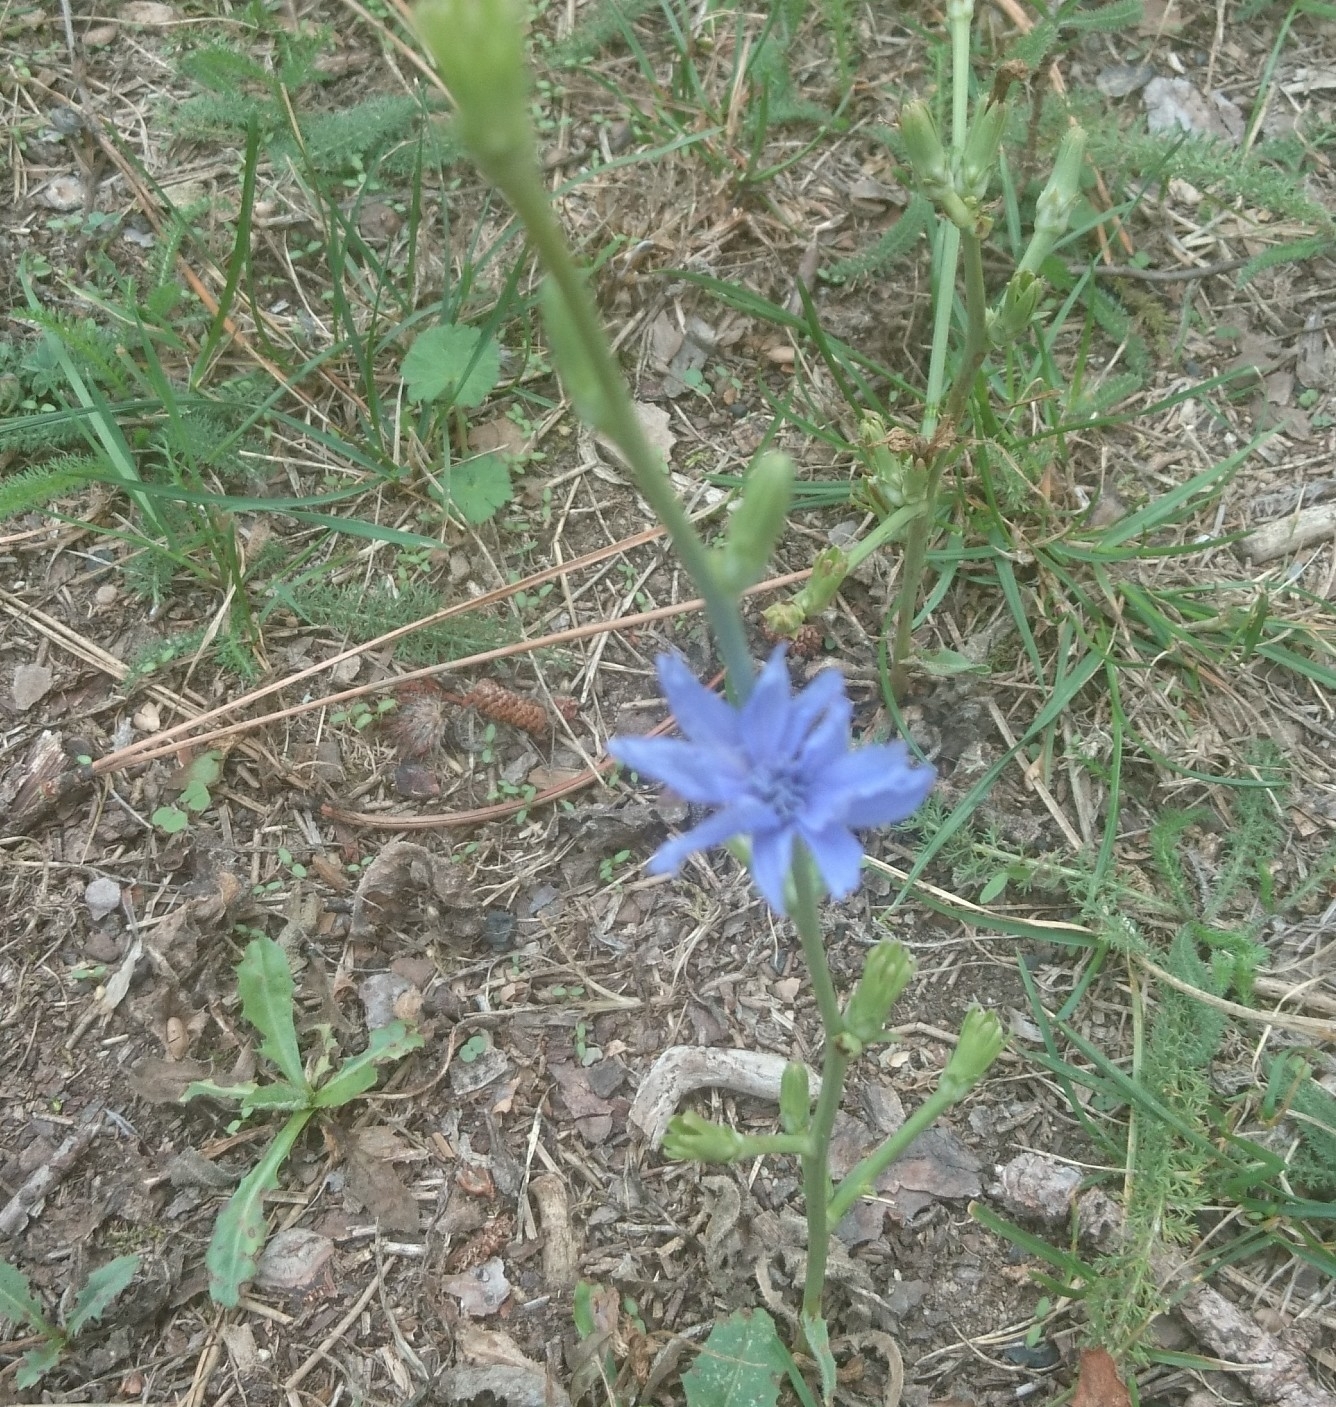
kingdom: Plantae
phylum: Tracheophyta
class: Magnoliopsida
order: Asterales
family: Asteraceae
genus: Cichorium
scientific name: Cichorium intybus
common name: Chicory
